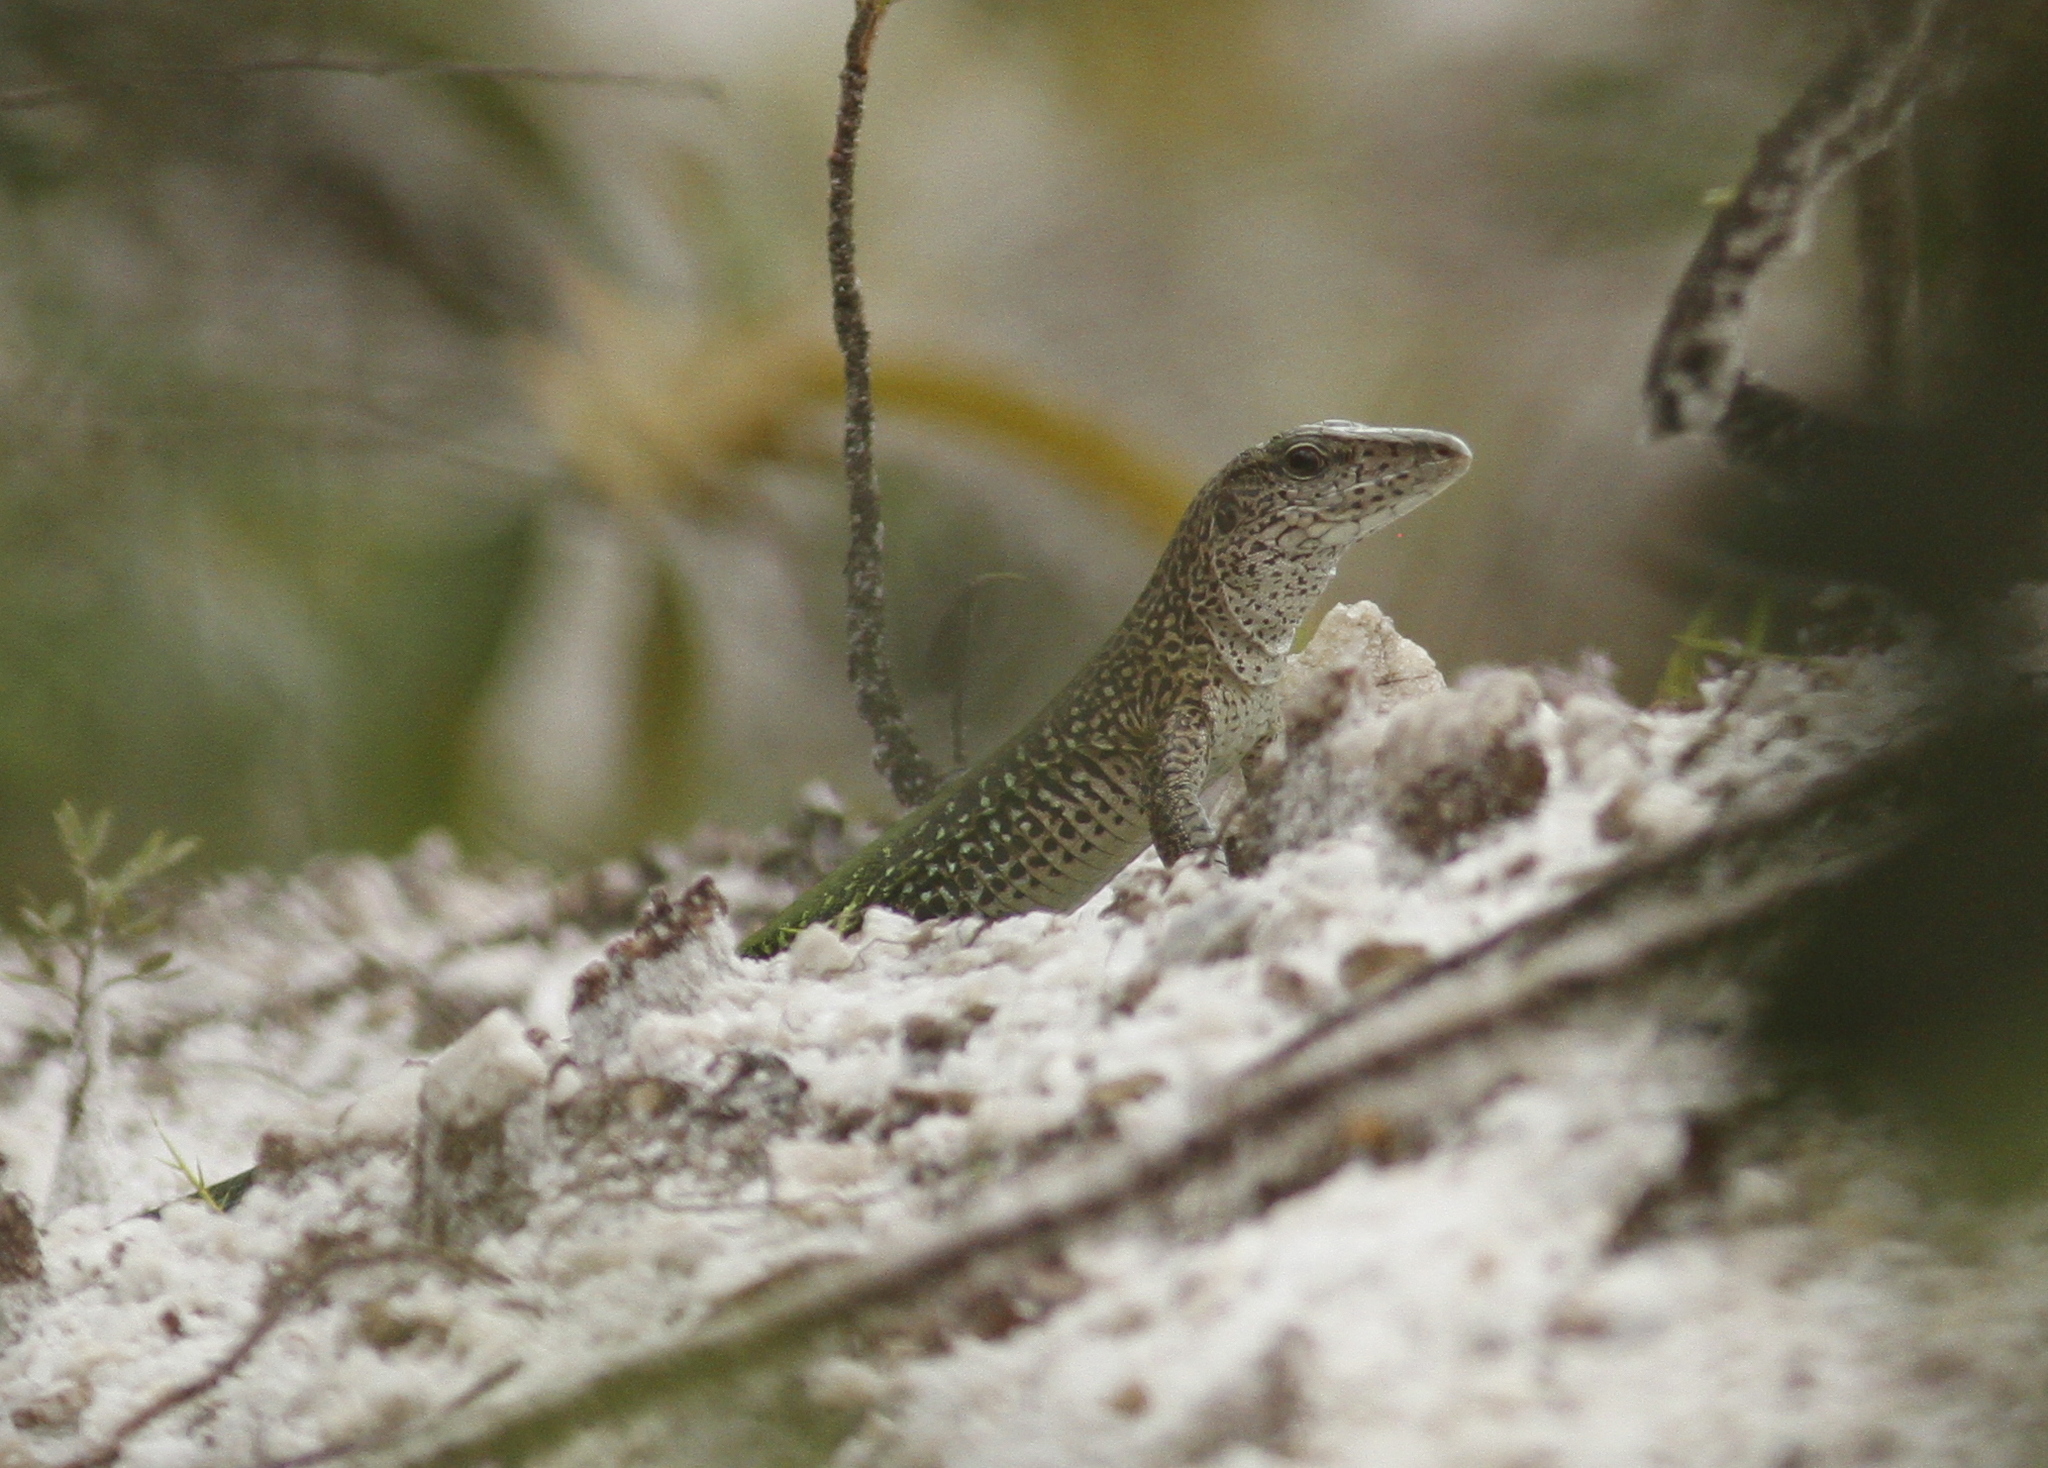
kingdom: Animalia
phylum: Chordata
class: Squamata
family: Teiidae
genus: Ameiva
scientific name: Ameiva ameiva
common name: Giant ameiva
